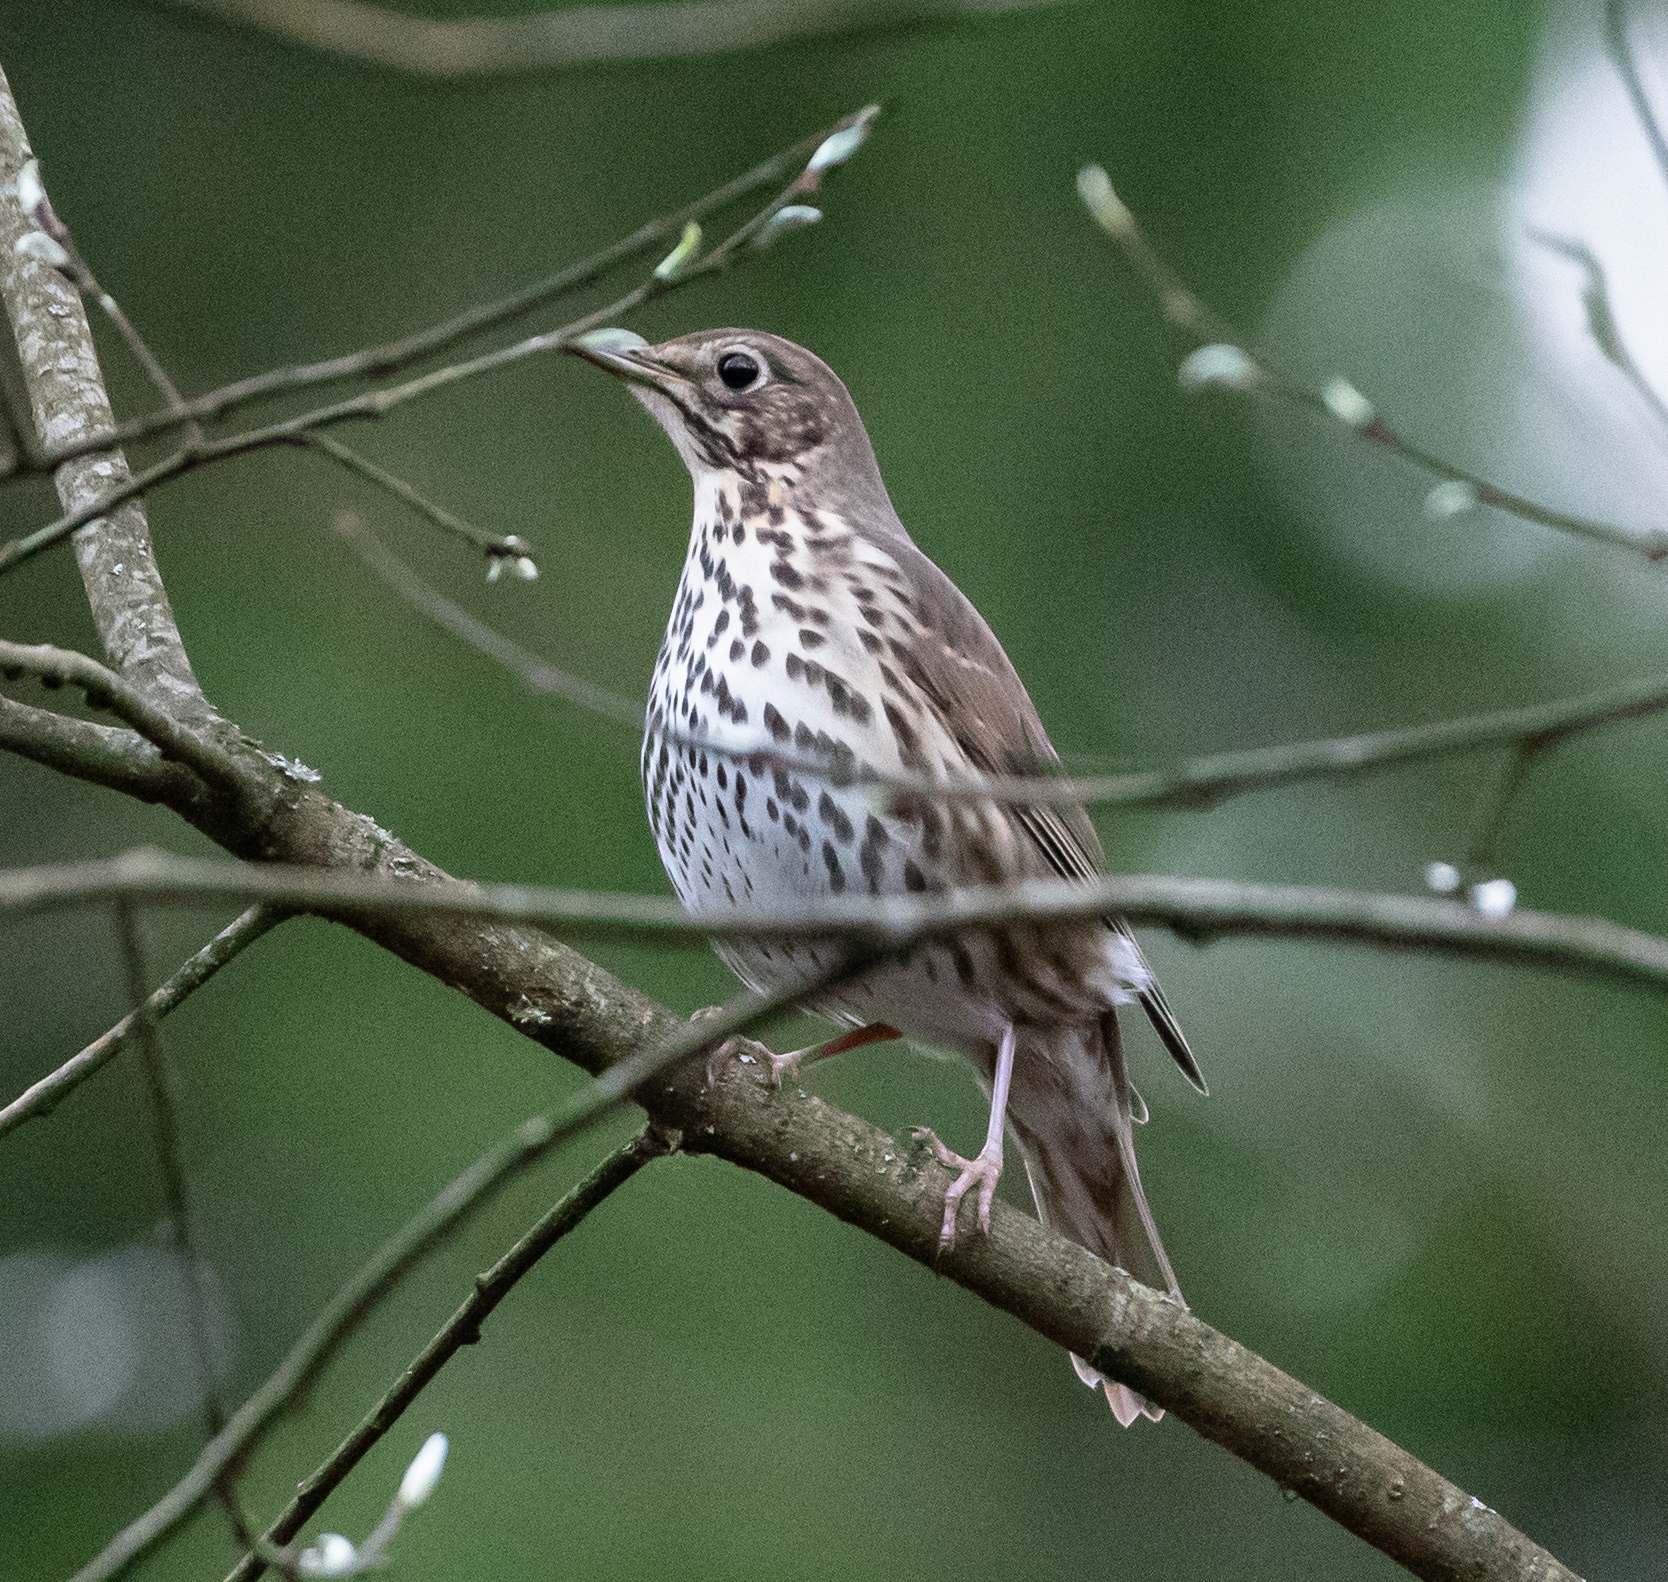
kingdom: Animalia
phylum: Chordata
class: Aves
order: Passeriformes
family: Turdidae
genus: Turdus
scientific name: Turdus philomelos
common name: Song thrush
